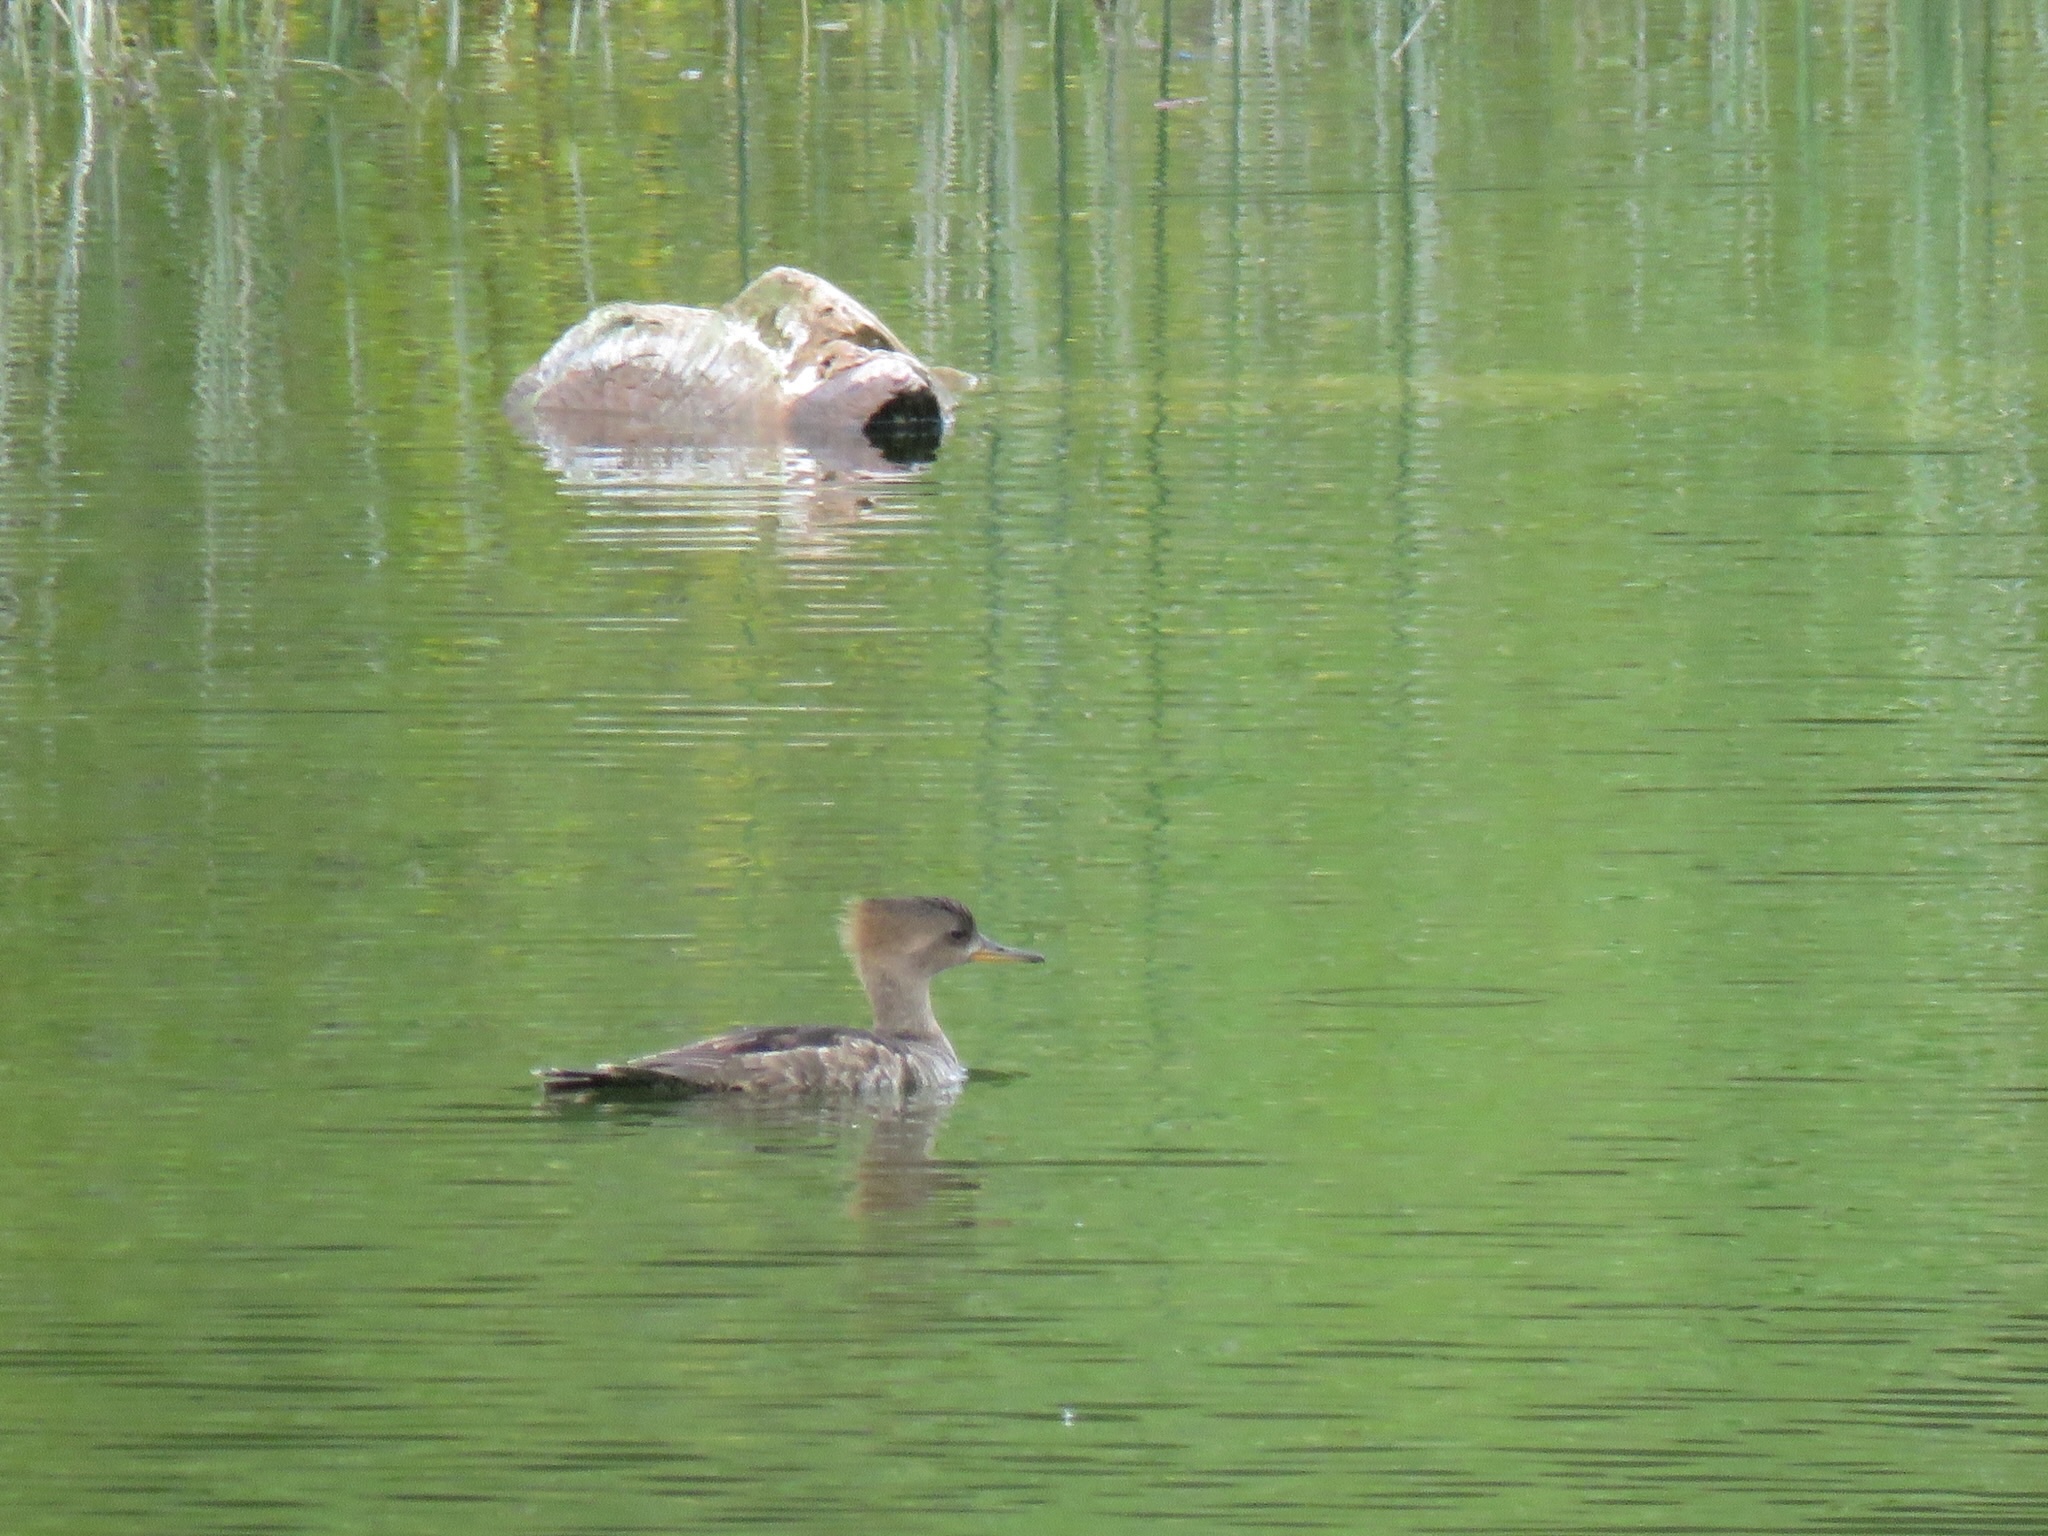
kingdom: Animalia
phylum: Chordata
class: Aves
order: Anseriformes
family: Anatidae
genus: Lophodytes
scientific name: Lophodytes cucullatus
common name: Hooded merganser
